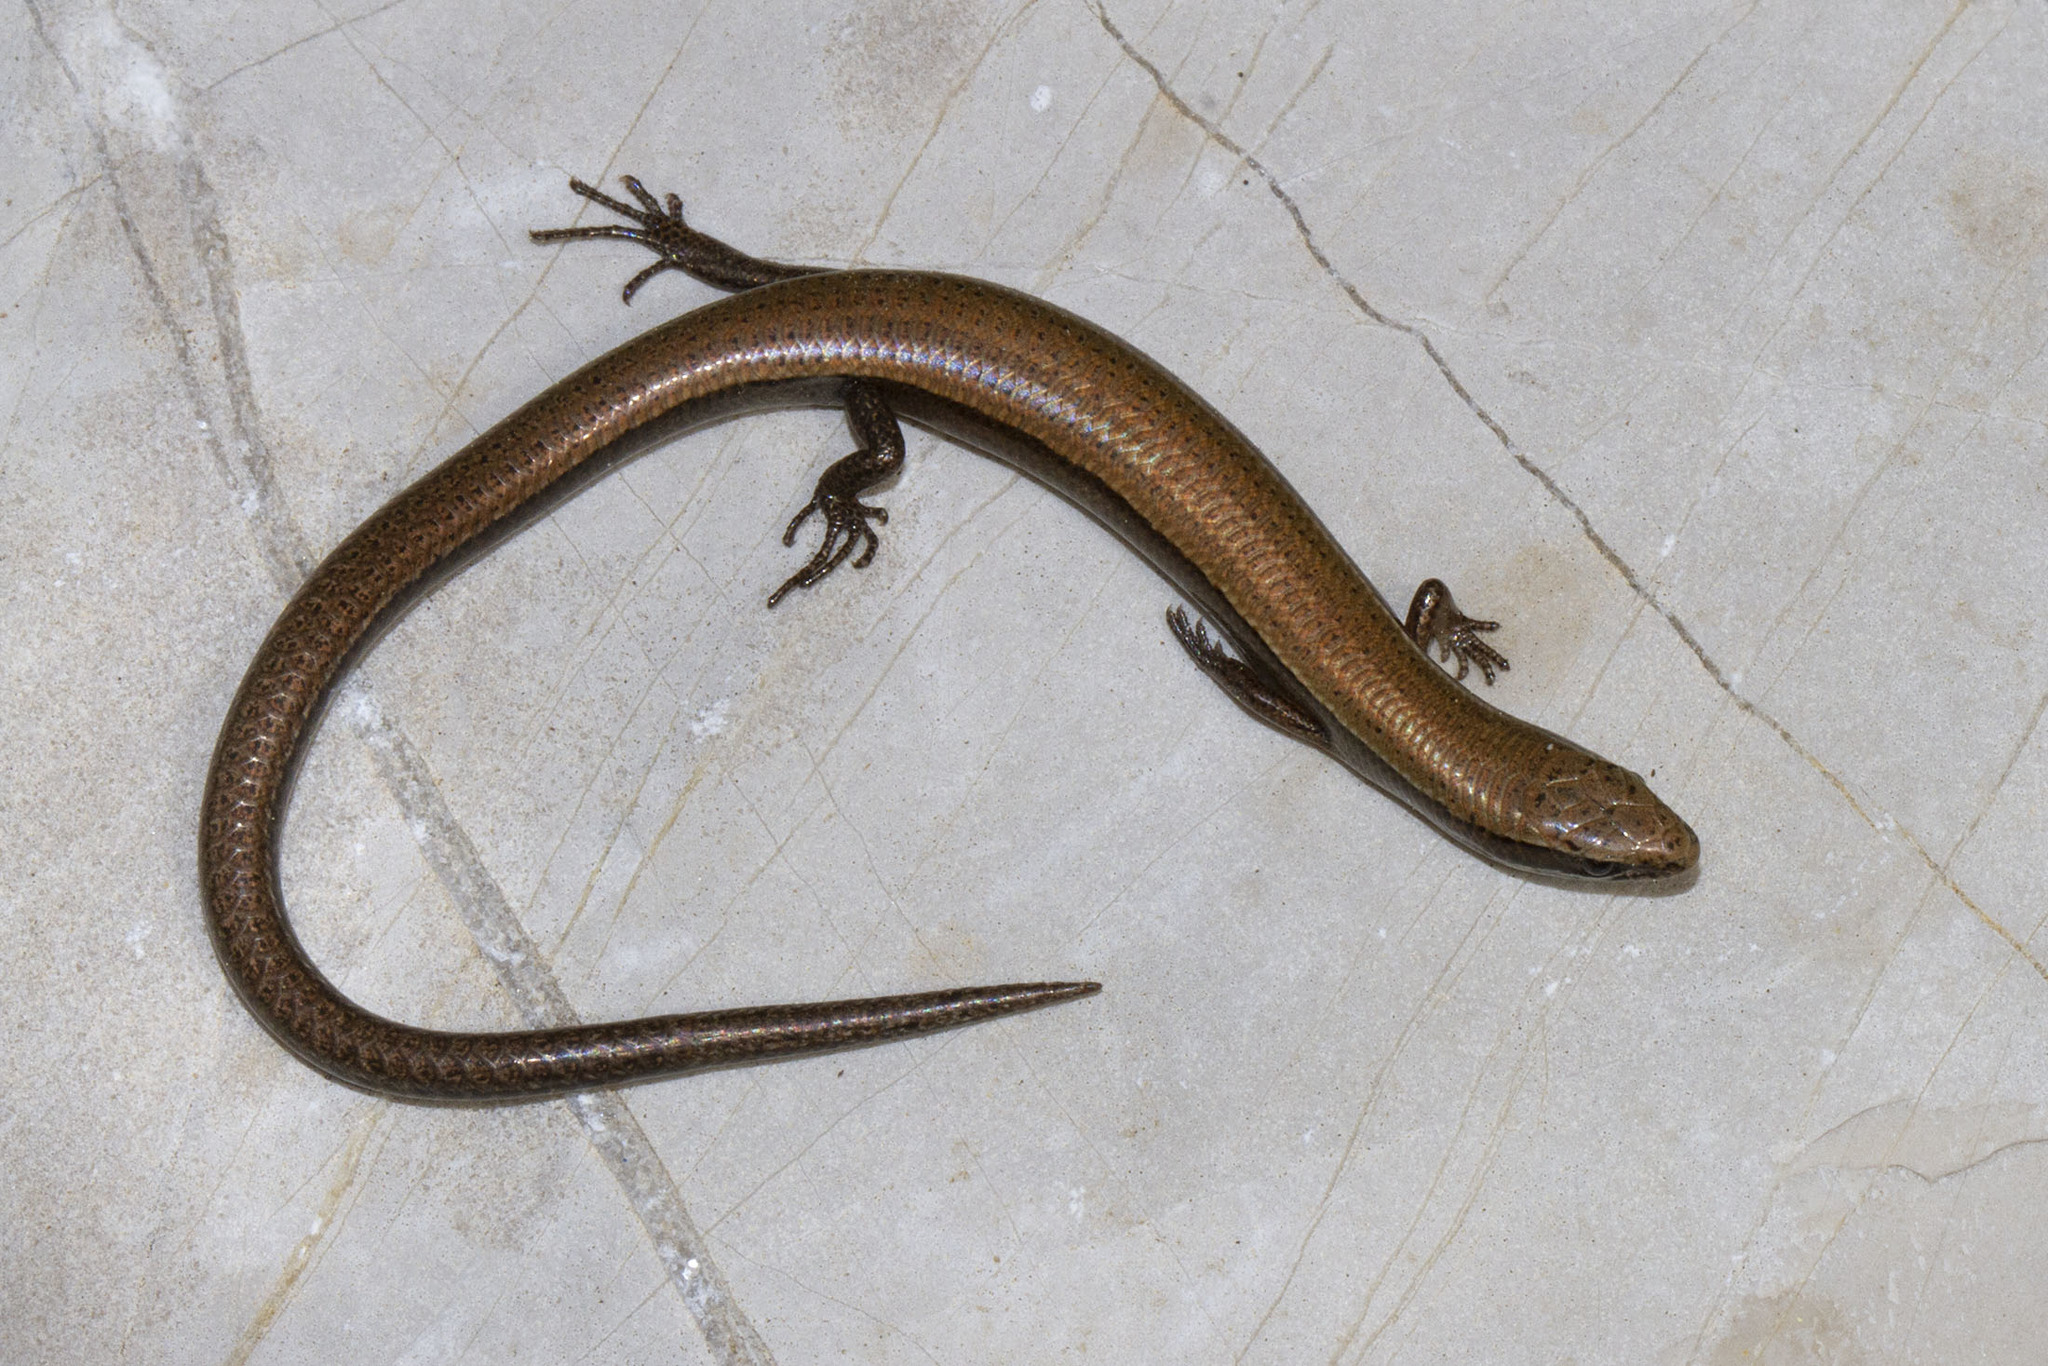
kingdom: Animalia
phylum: Chordata
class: Squamata
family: Scincidae
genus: Ablepharus
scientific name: Ablepharus anatolicus
